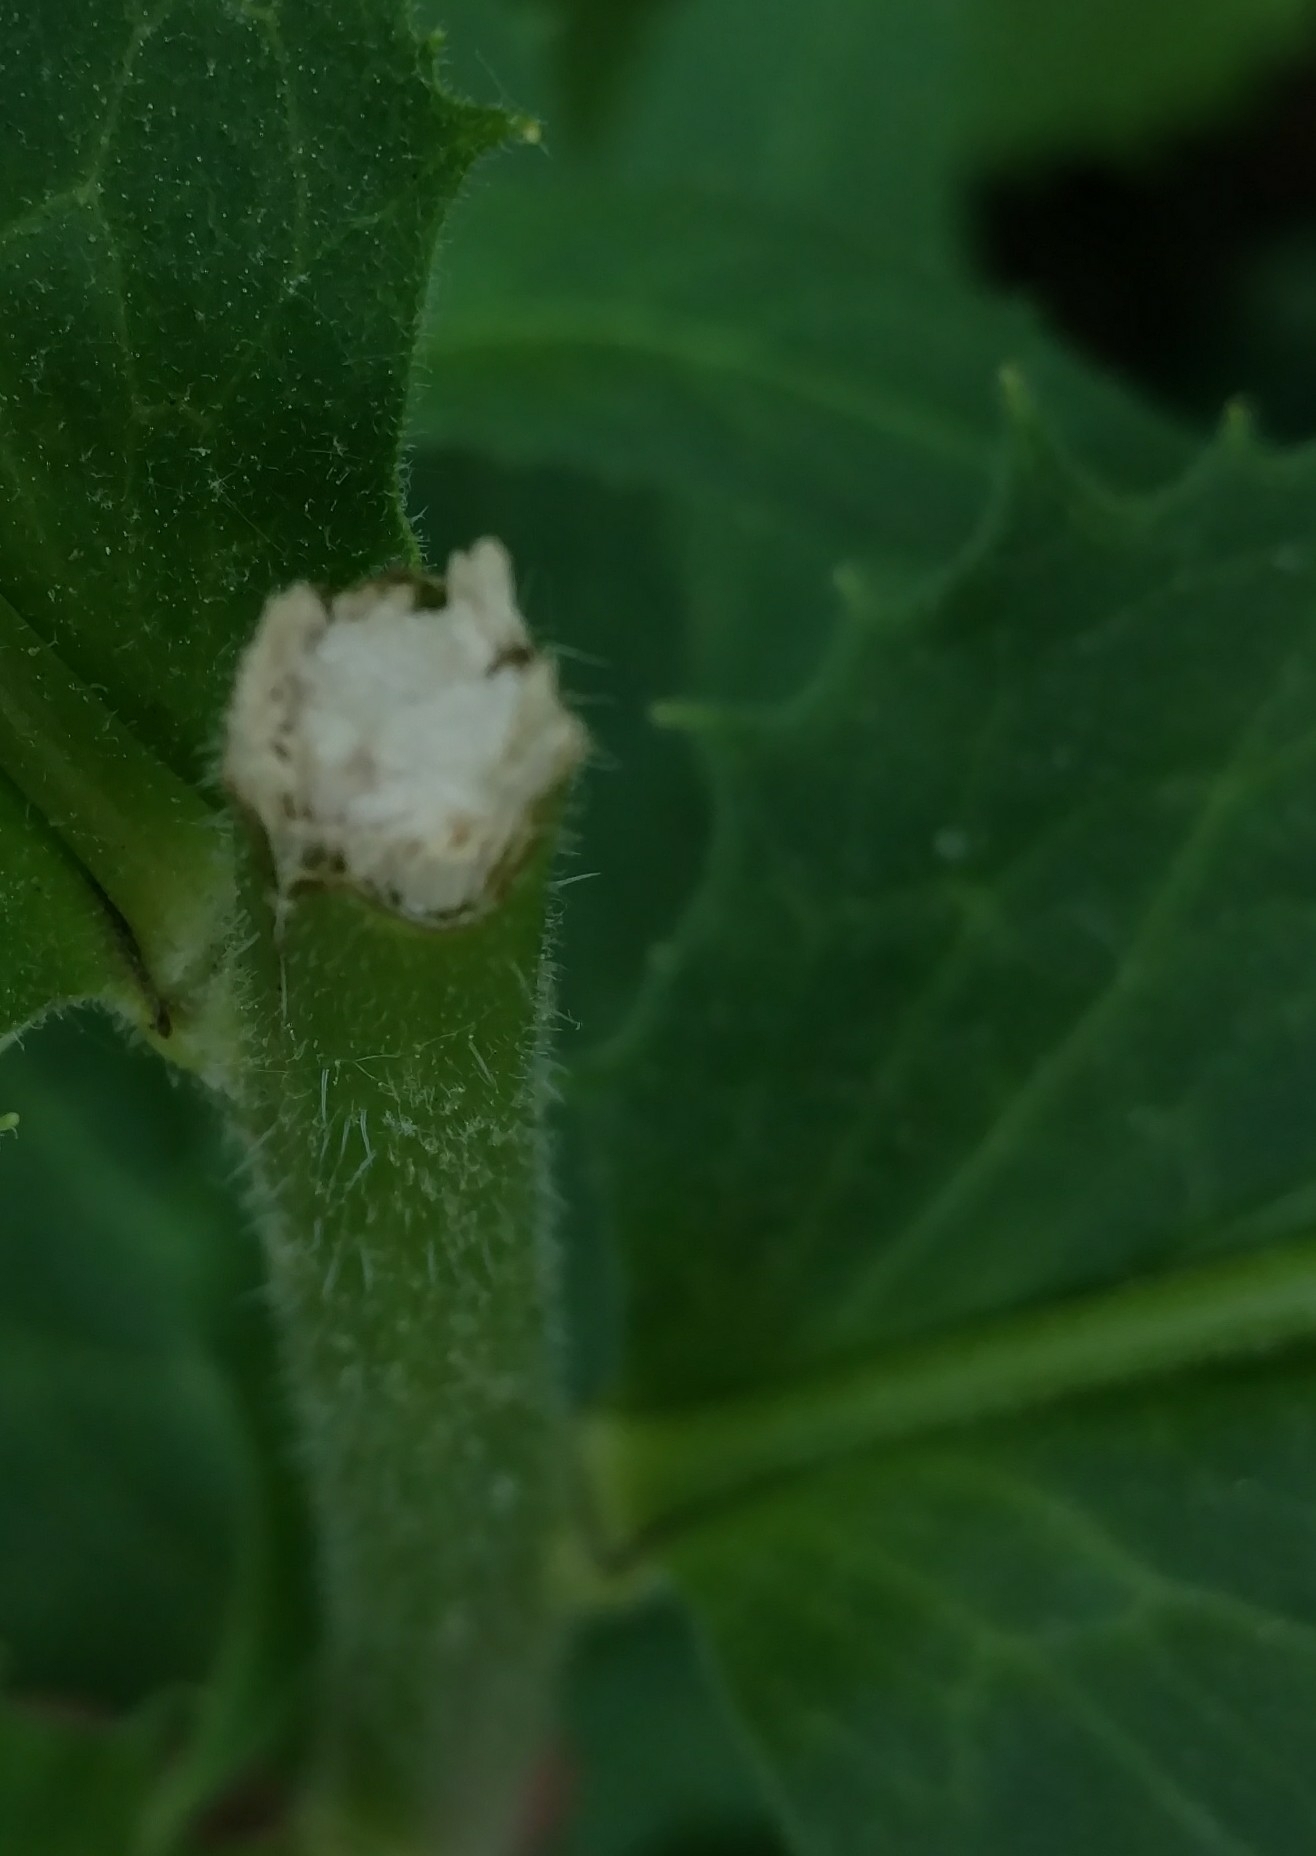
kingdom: Plantae
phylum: Tracheophyta
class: Magnoliopsida
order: Brassicales
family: Brassicaceae
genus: Hesperis
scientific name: Hesperis matronalis
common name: Dame's-violet
